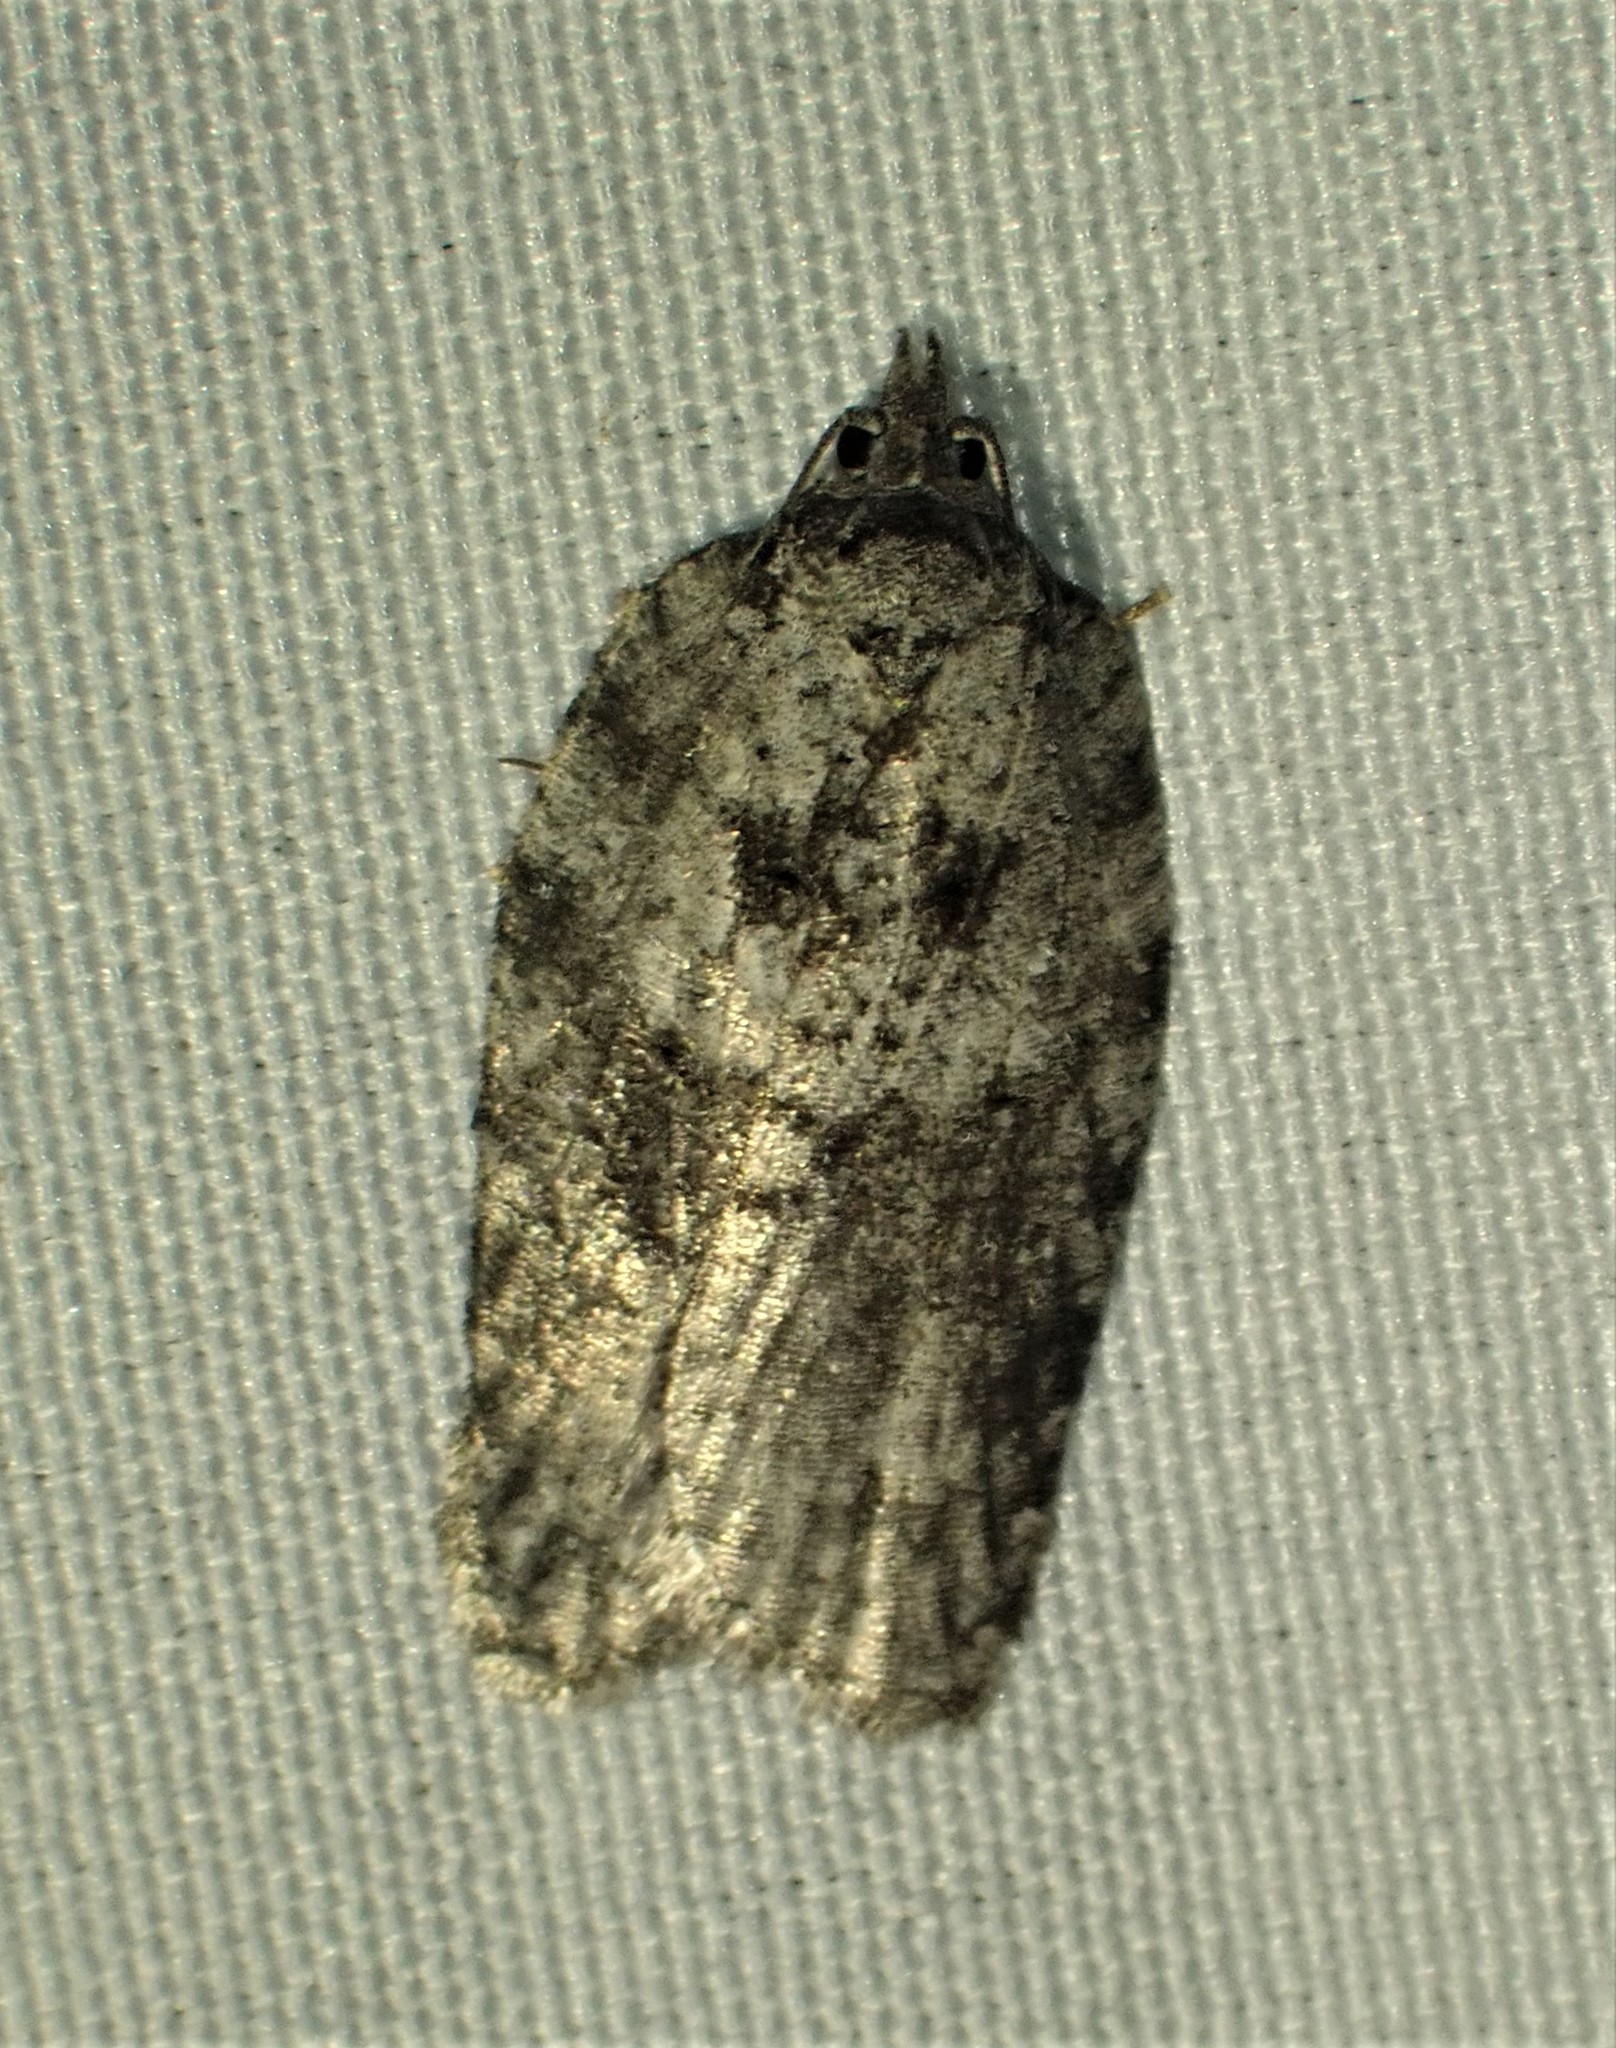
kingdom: Animalia
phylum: Arthropoda
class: Insecta
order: Lepidoptera
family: Tortricidae
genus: Acleris
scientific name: Acleris nigrolinea
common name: Black-lined acleris
